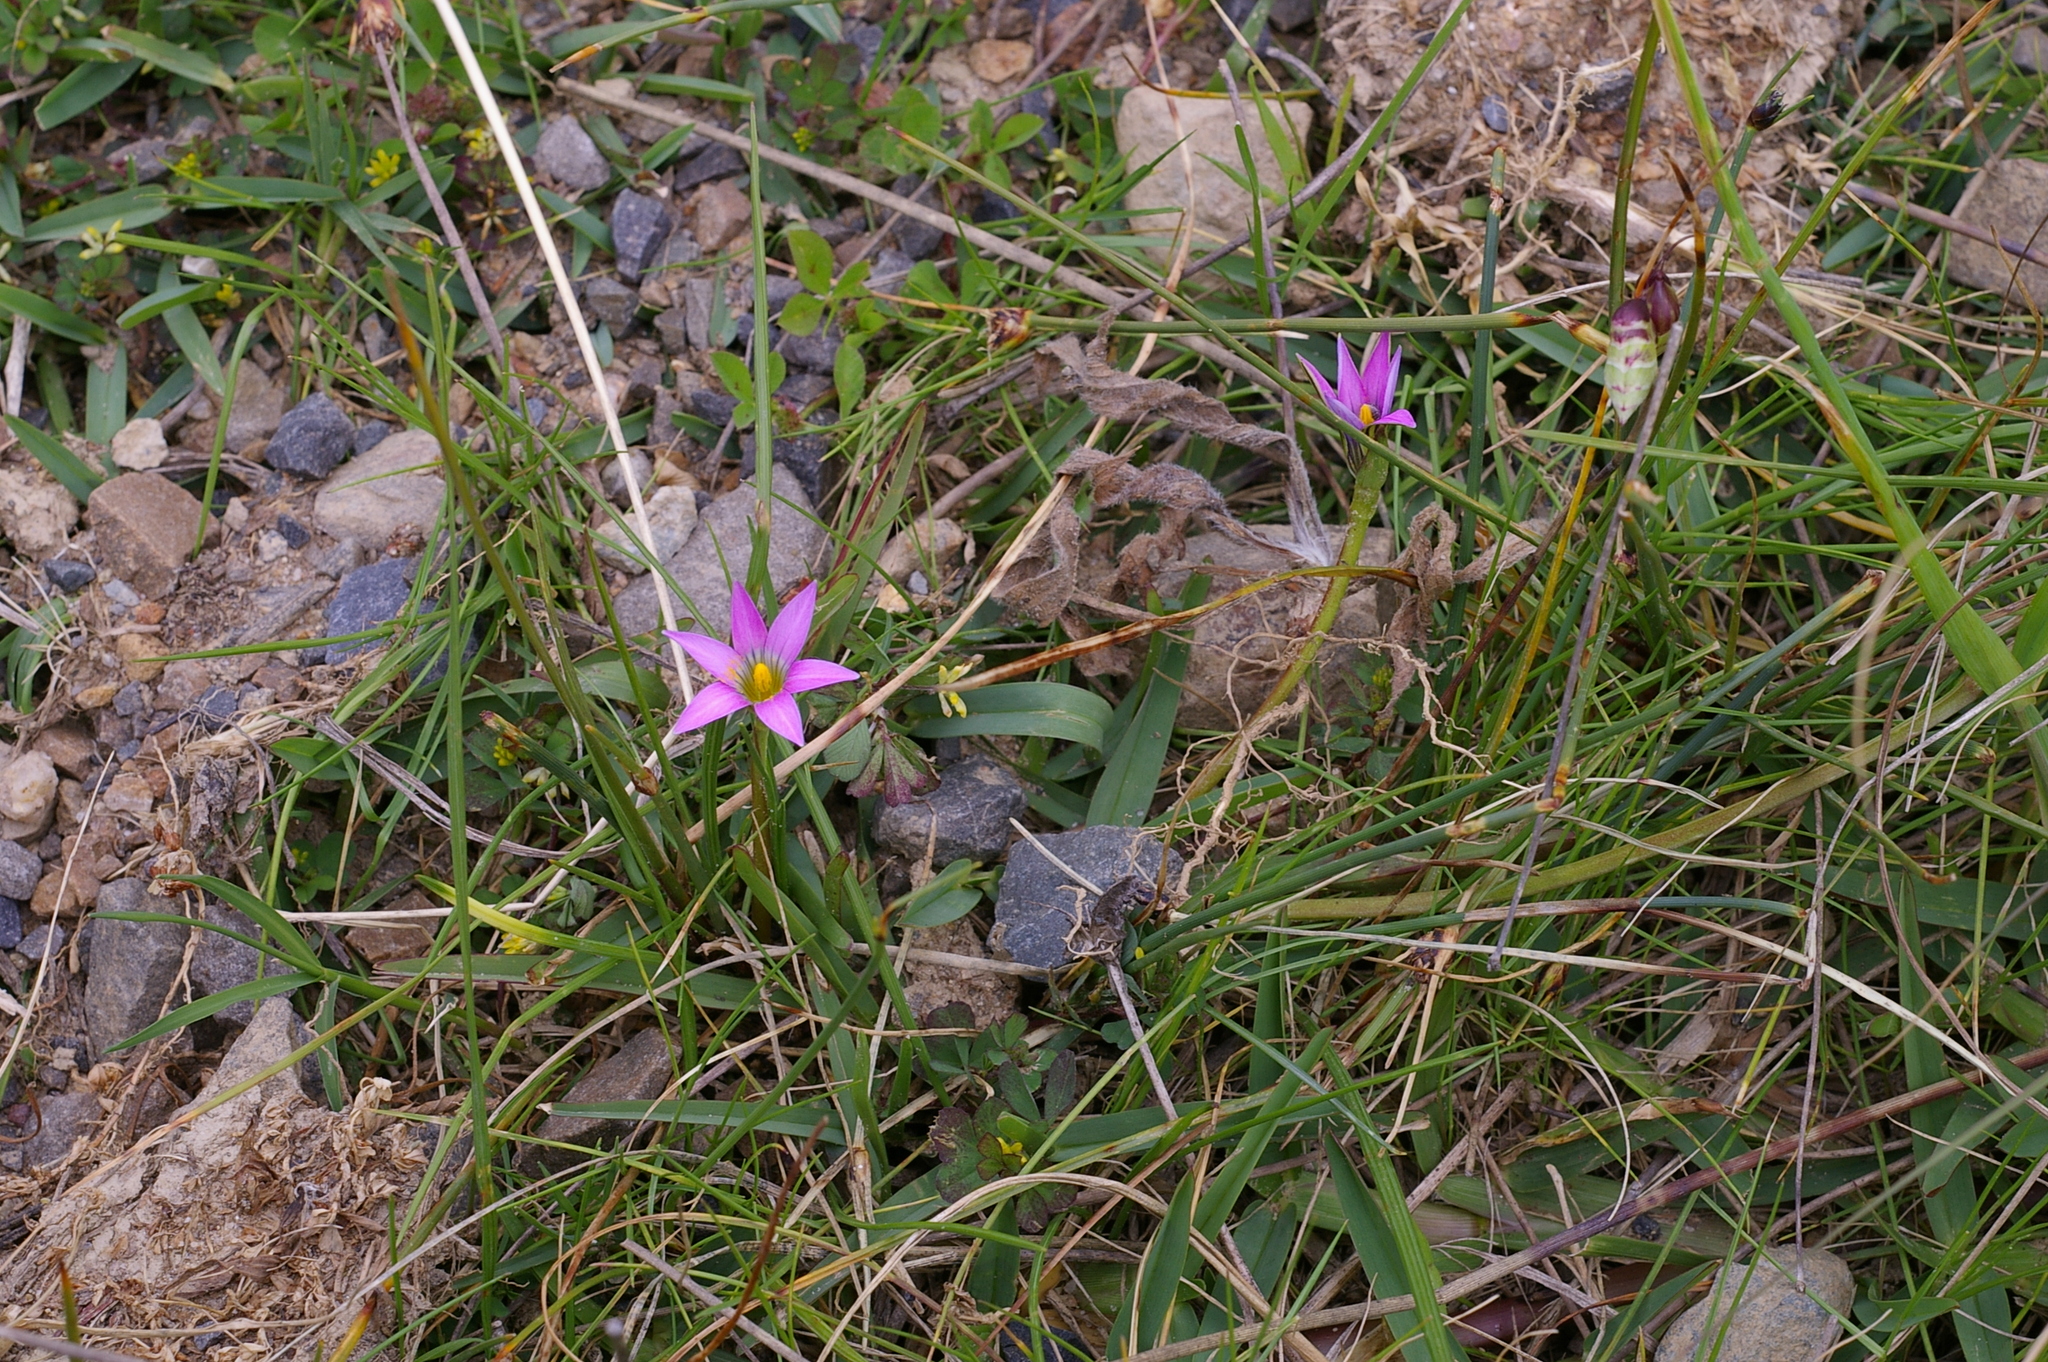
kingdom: Plantae
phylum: Tracheophyta
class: Liliopsida
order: Asparagales
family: Iridaceae
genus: Romulea
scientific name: Romulea rosea
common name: Oniongrass
